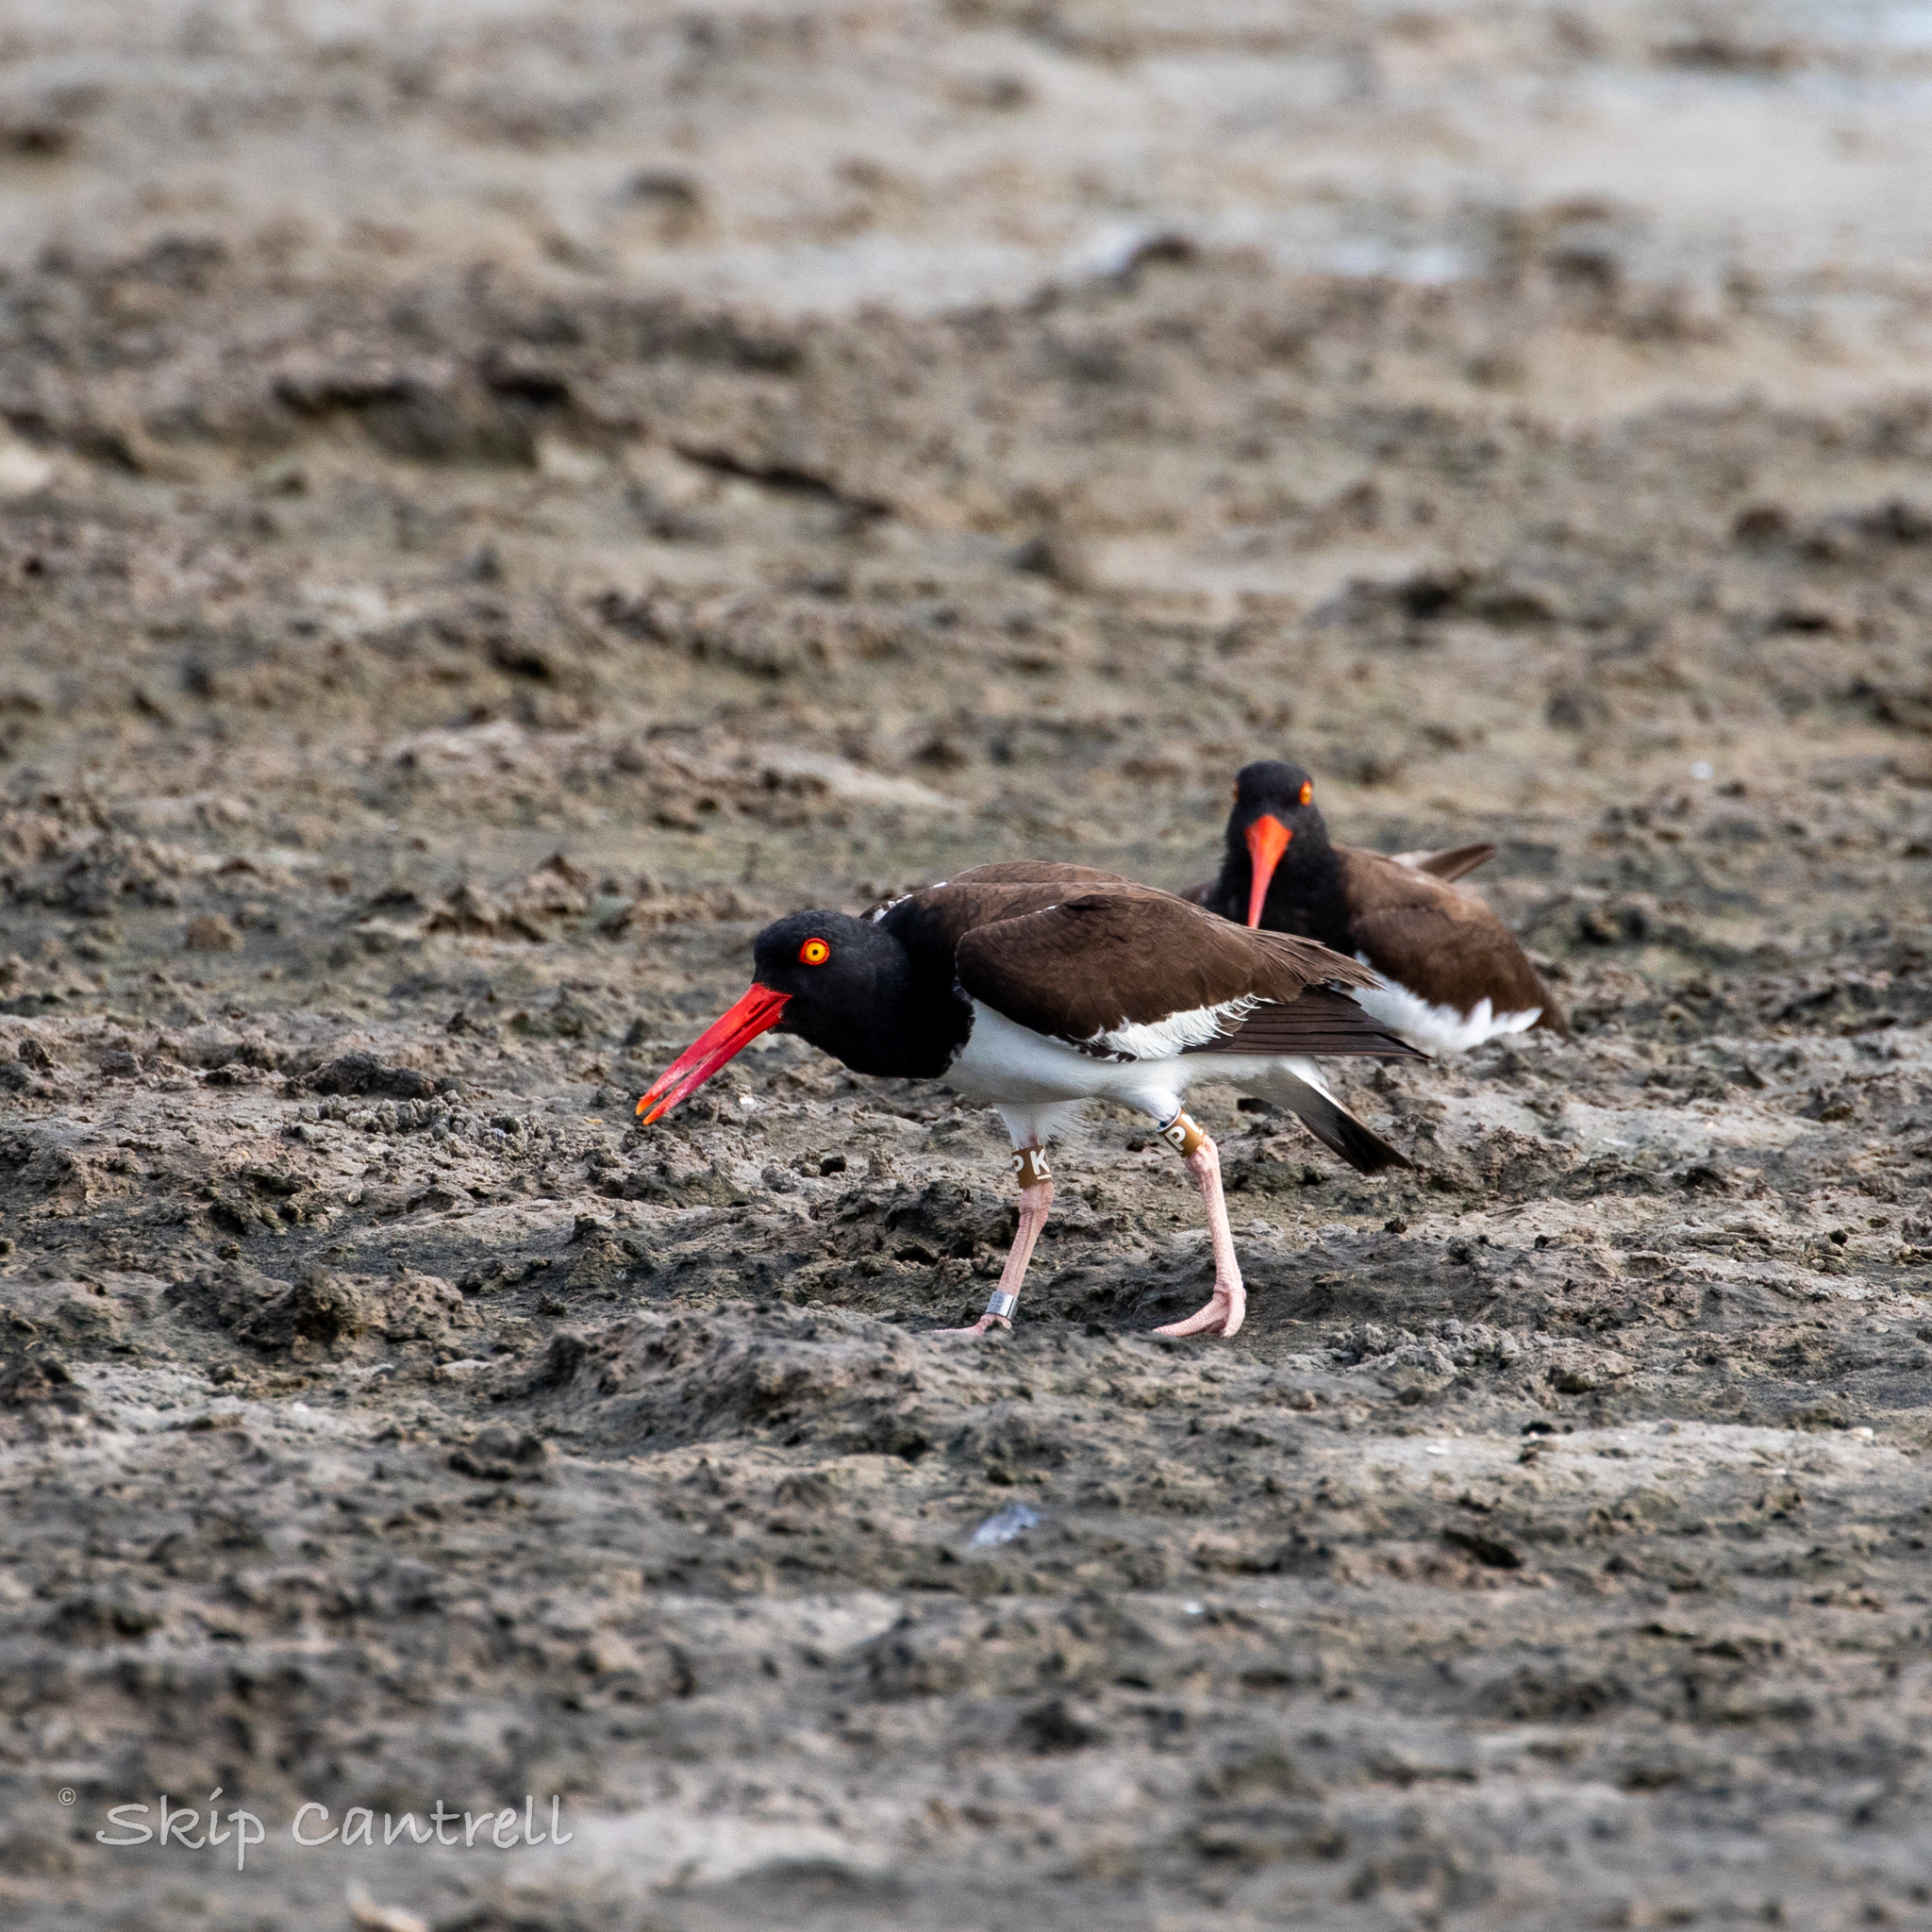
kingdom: Animalia
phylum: Chordata
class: Aves
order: Charadriiformes
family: Haematopodidae
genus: Haematopus
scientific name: Haematopus palliatus
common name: American oystercatcher
